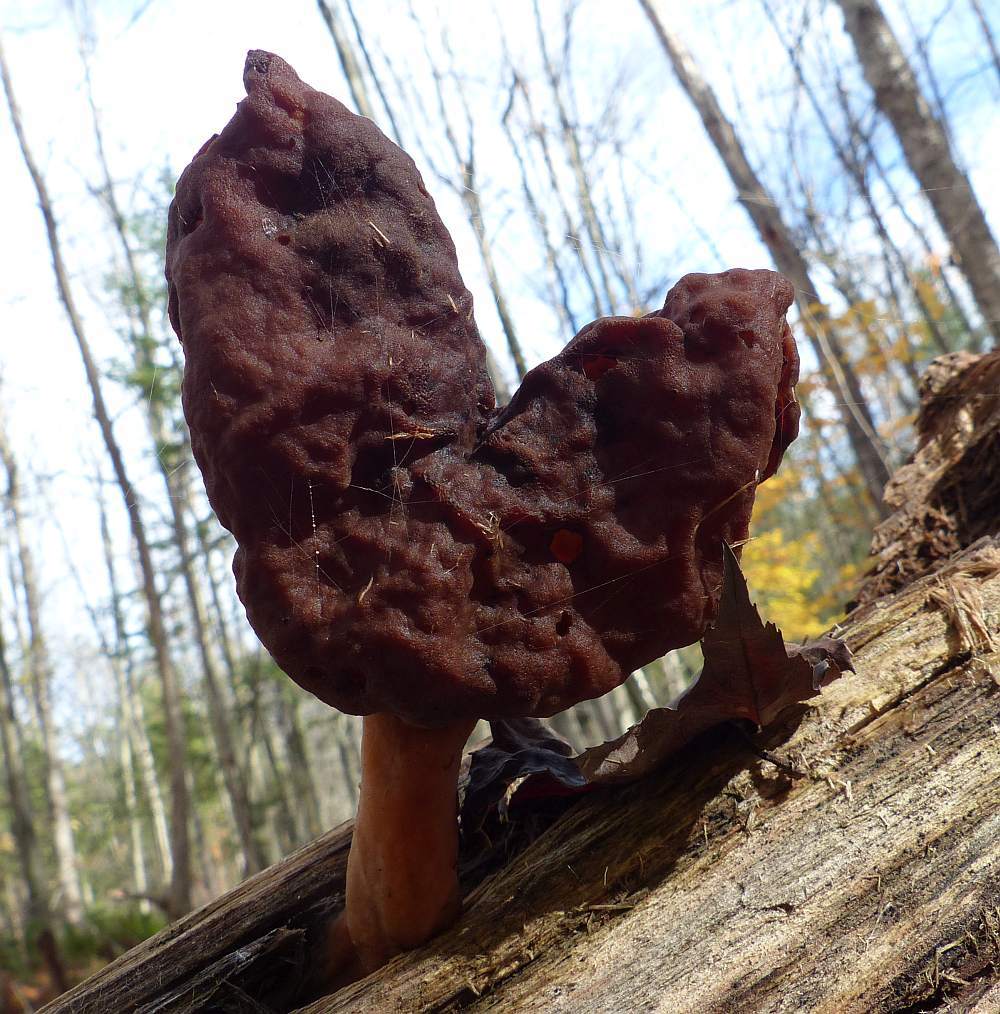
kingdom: Fungi
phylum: Ascomycota
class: Pezizomycetes
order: Pezizales
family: Discinaceae
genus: Gyromitra
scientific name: Gyromitra infula
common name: Pouched false morel
